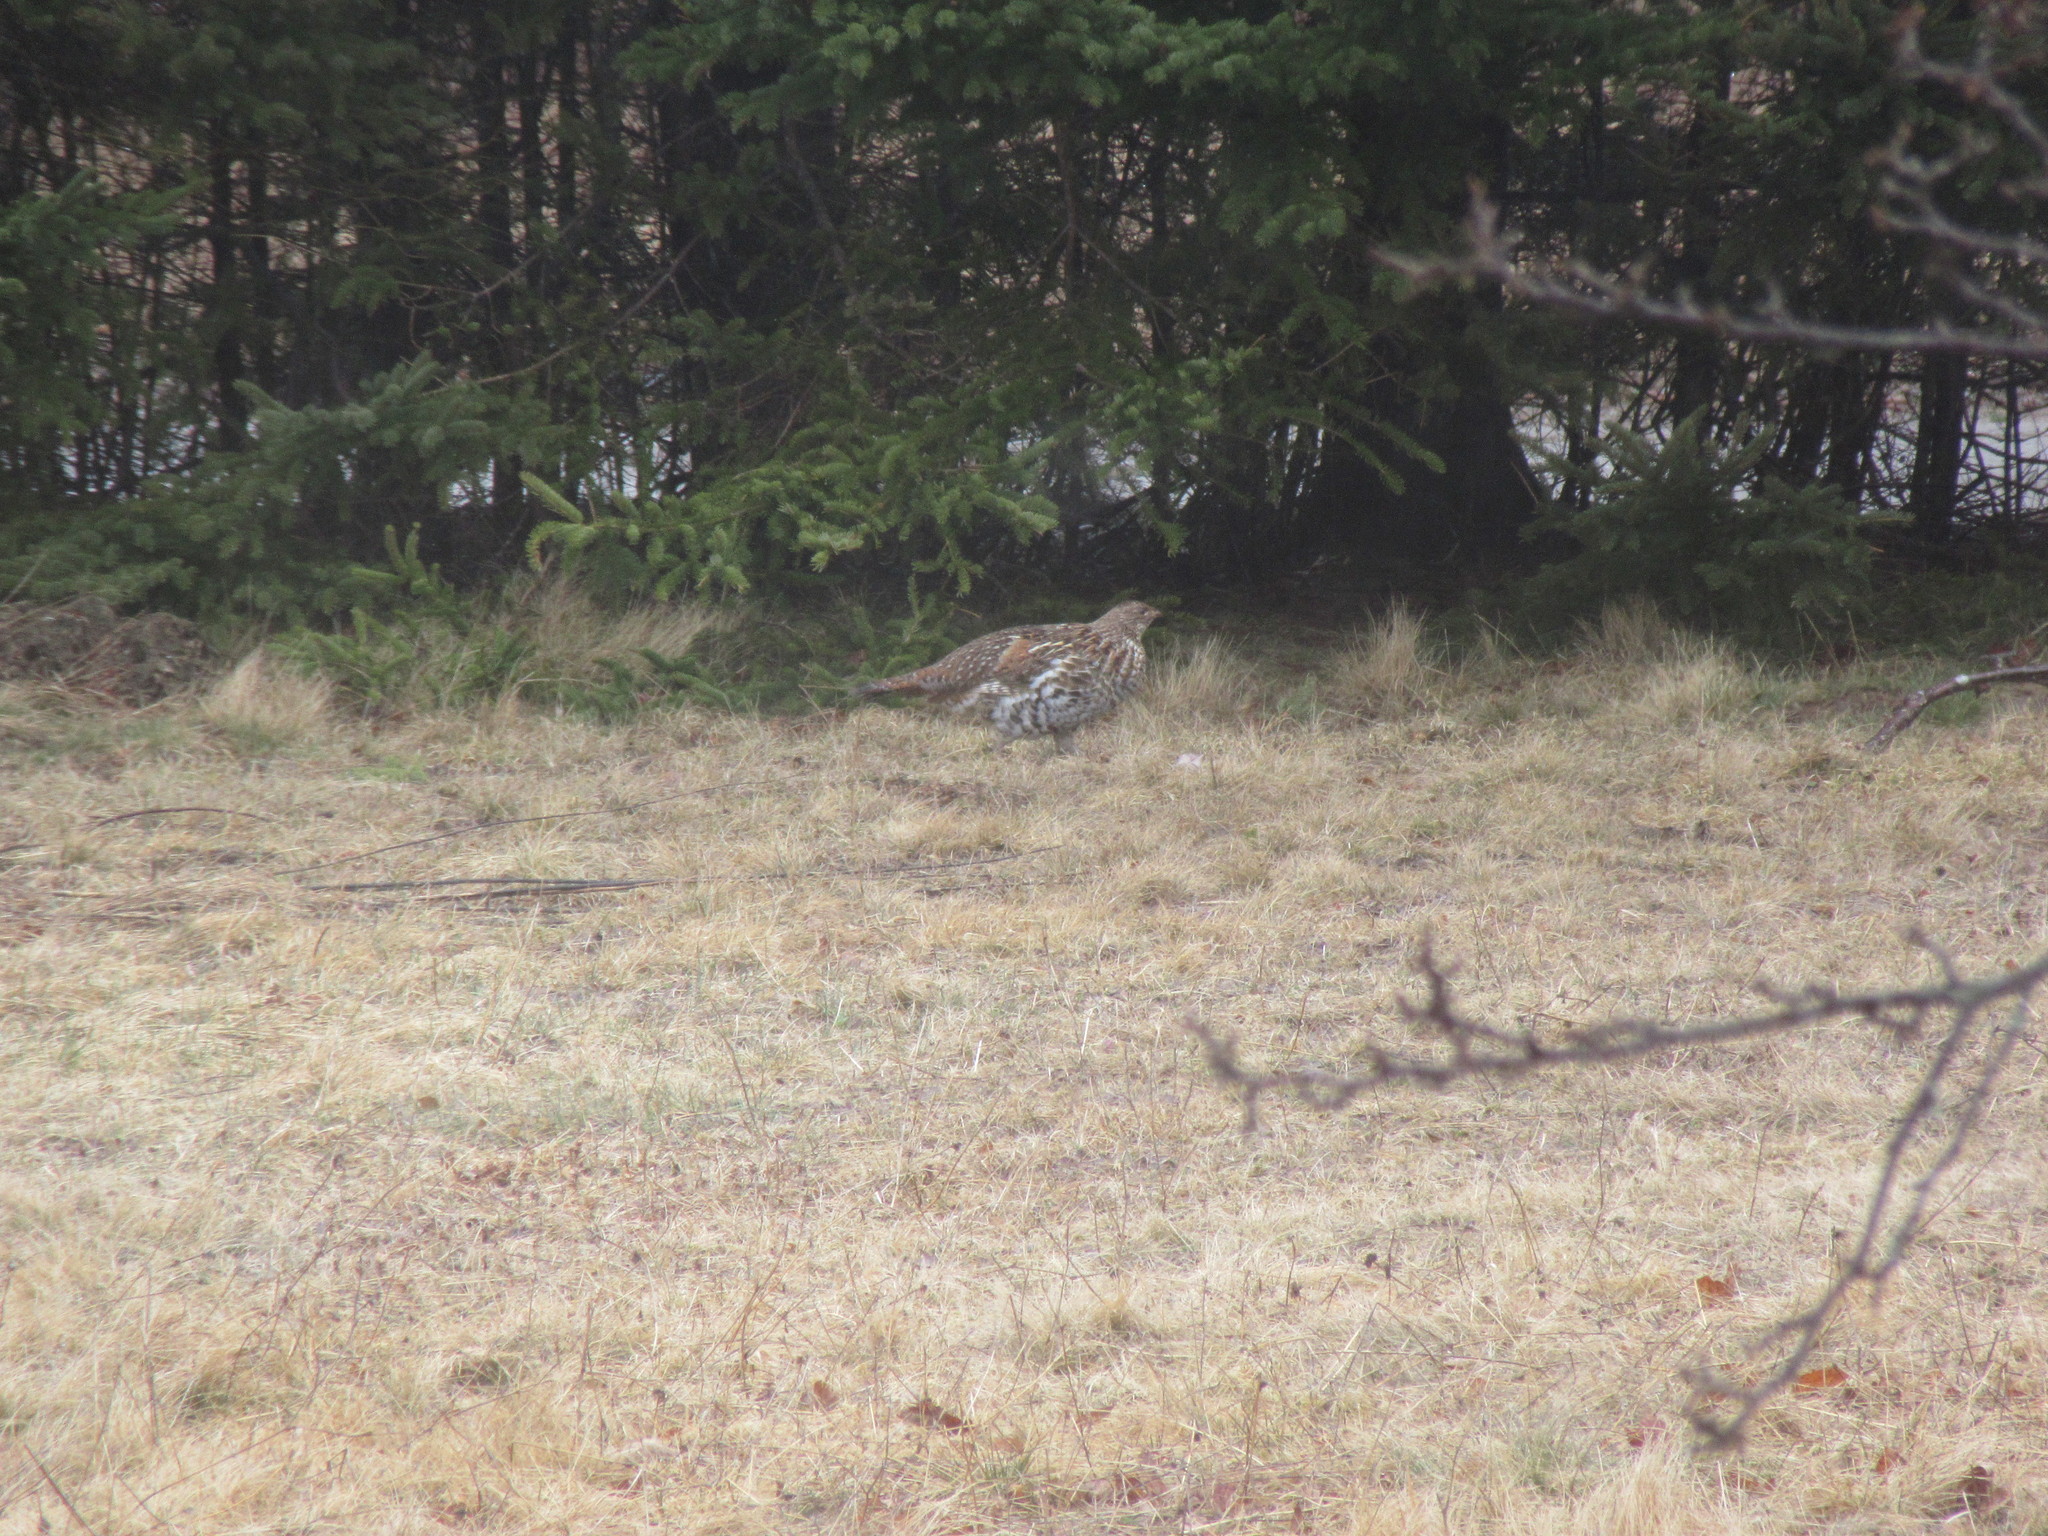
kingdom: Animalia
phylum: Chordata
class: Aves
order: Galliformes
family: Phasianidae
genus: Bonasa
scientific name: Bonasa umbellus
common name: Ruffed grouse
